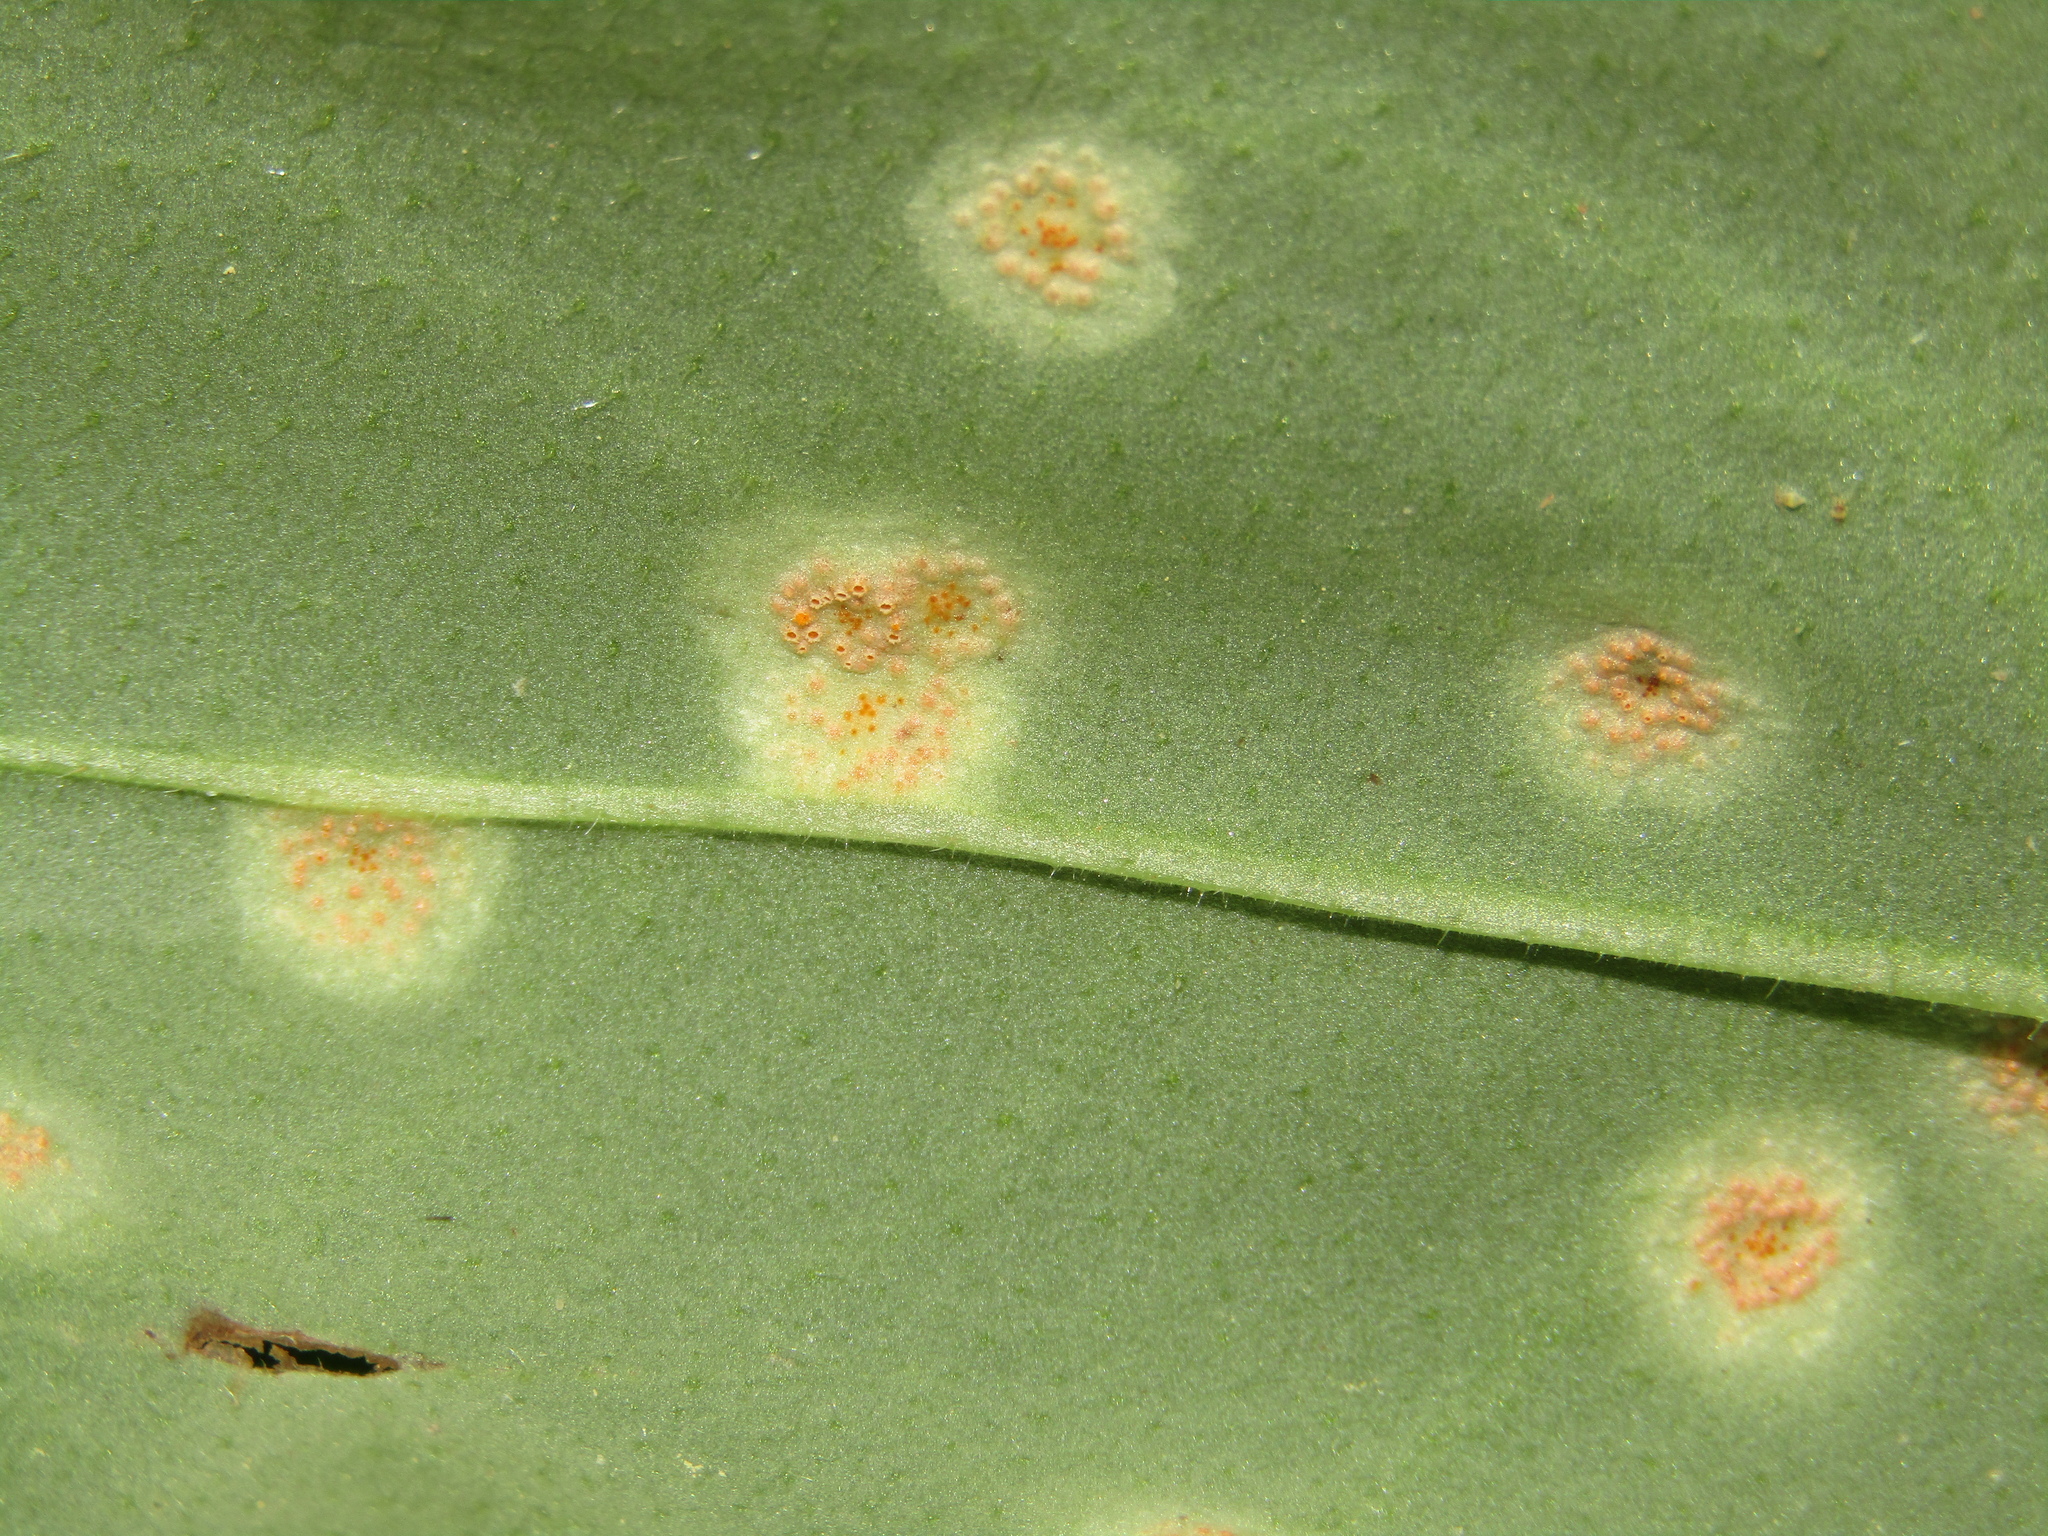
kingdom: Fungi
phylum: Basidiomycota
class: Pucciniomycetes
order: Pucciniales
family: Pucciniaceae
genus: Puccinia
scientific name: Puccinia bromina
